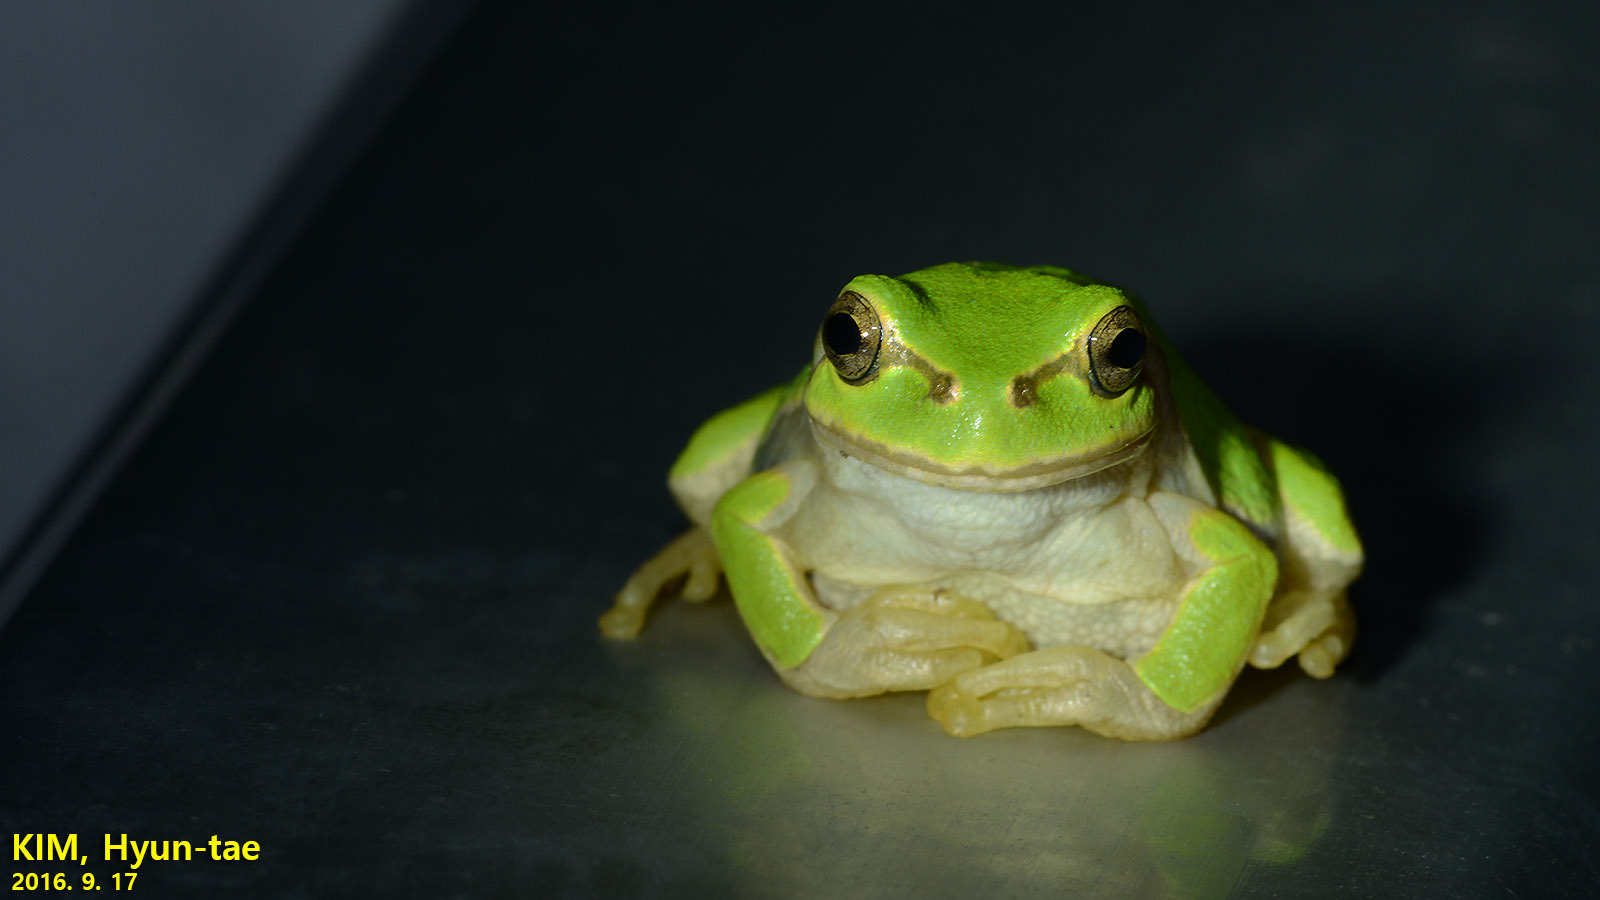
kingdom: Animalia
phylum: Chordata
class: Amphibia
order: Anura
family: Hylidae
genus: Dryophytes
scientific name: Dryophytes japonicus
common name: Japanese treefrog
